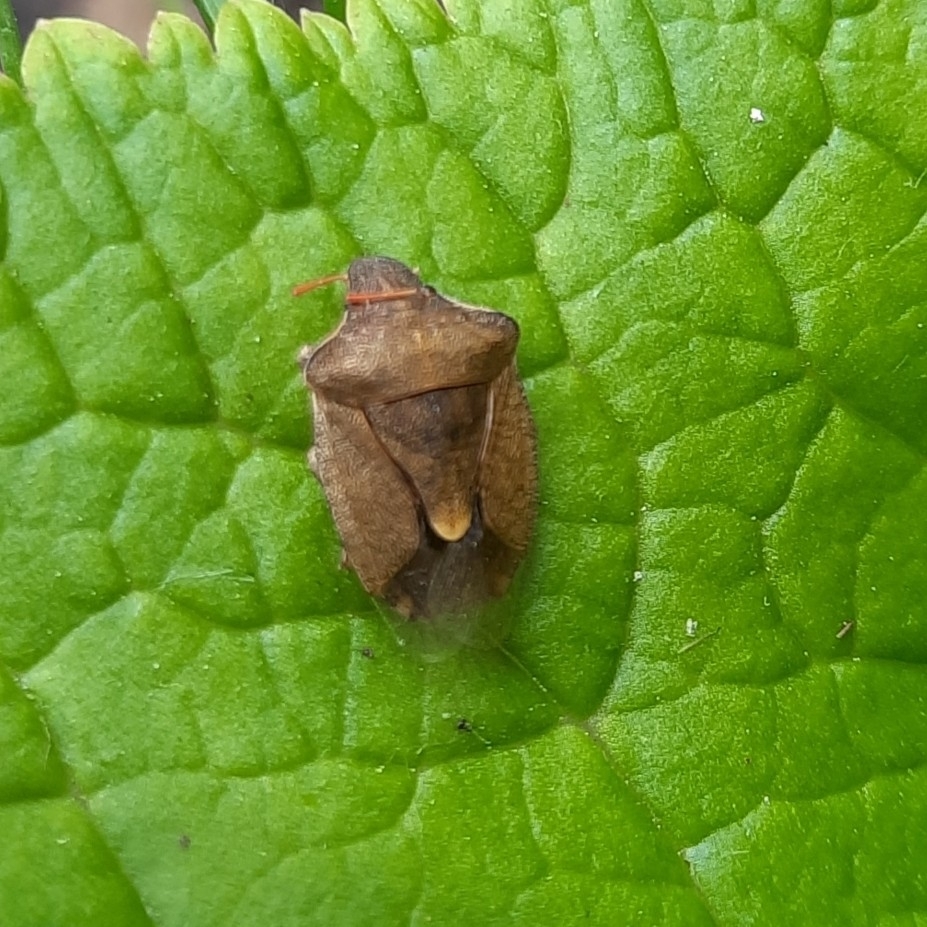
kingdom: Animalia
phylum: Arthropoda
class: Insecta
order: Hemiptera
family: Pentatomidae
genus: Holcostethus
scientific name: Holcostethus strictus
